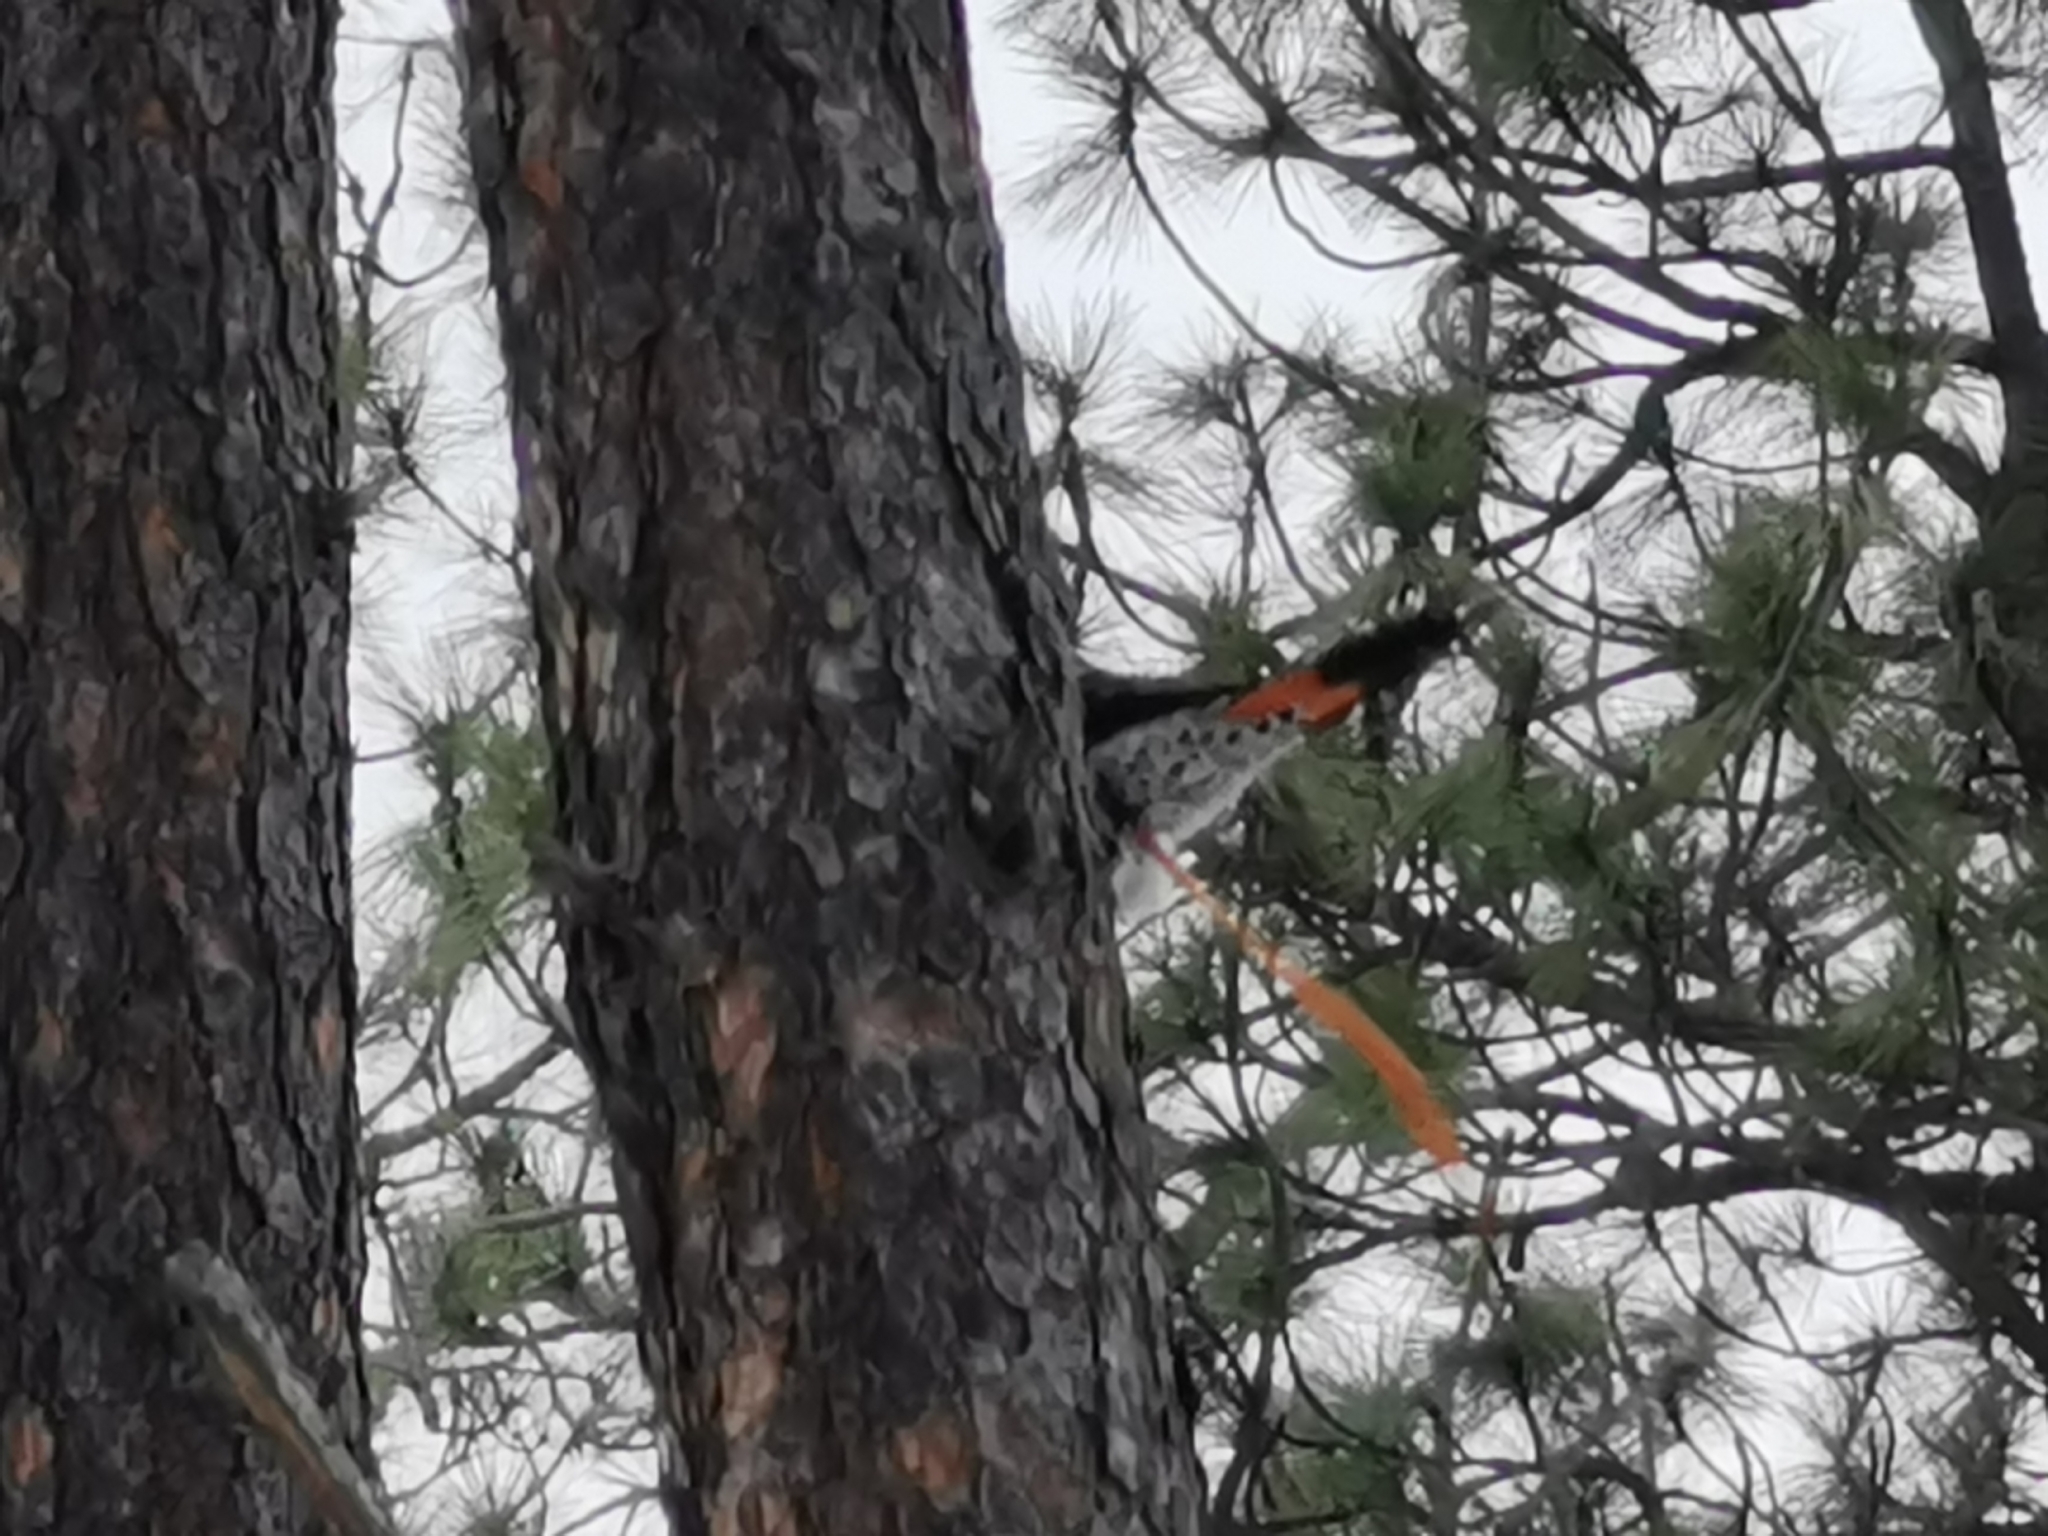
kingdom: Animalia
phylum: Chordata
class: Aves
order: Piciformes
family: Picidae
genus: Colaptes
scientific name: Colaptes auratus
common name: Northern flicker
